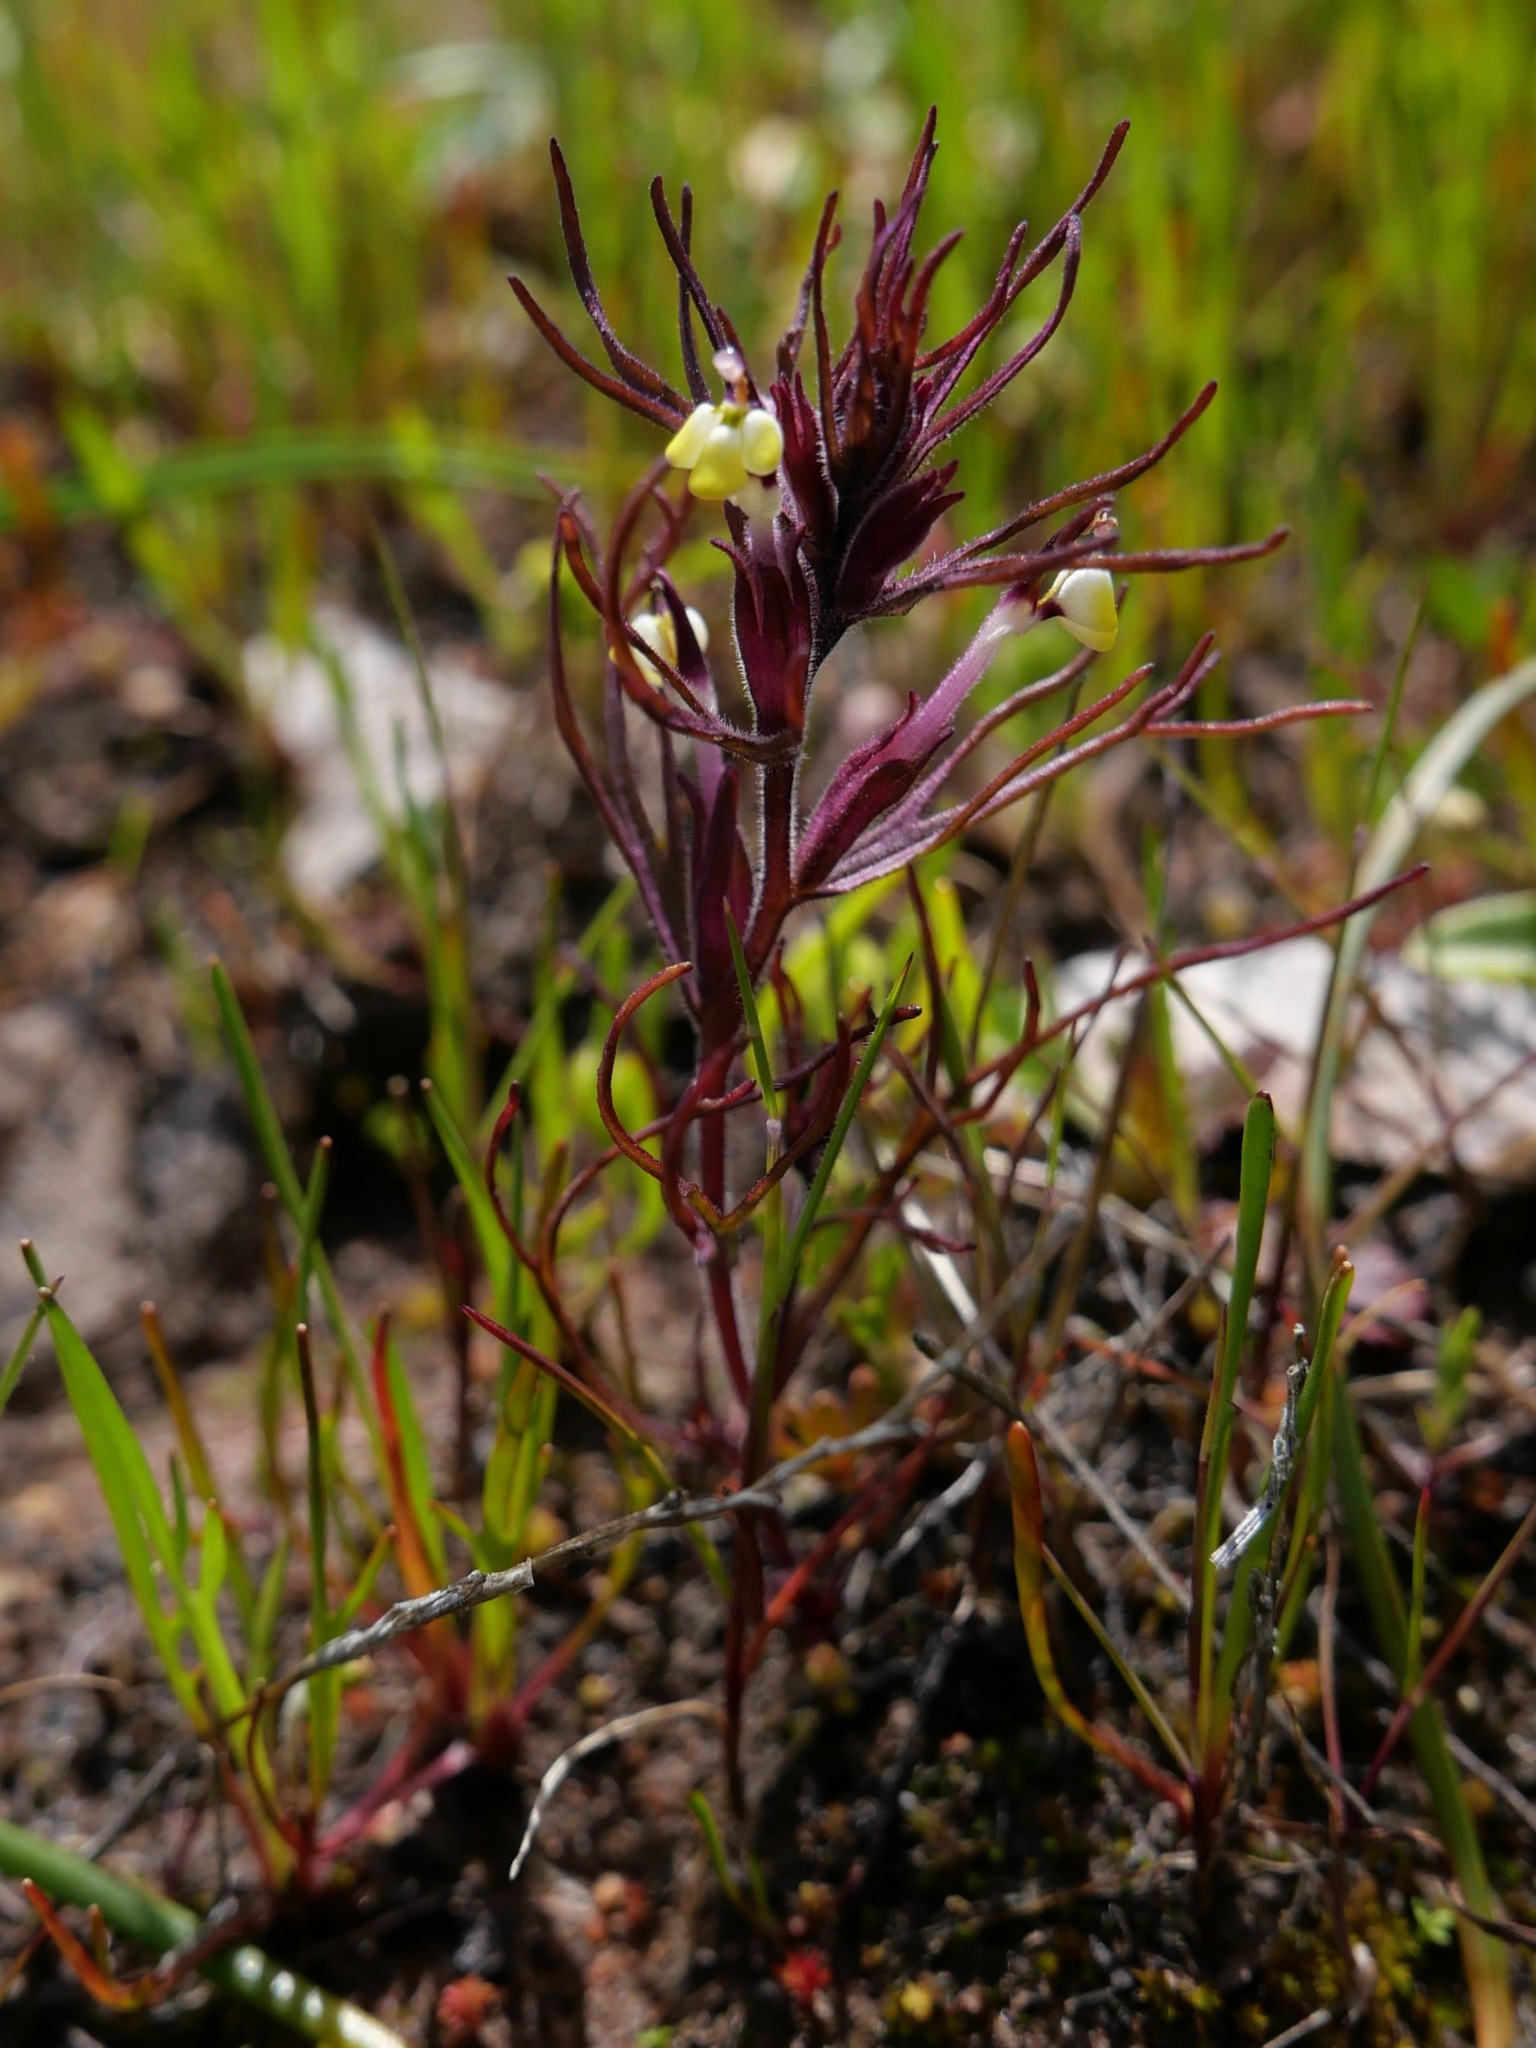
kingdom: Plantae
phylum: Tracheophyta
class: Magnoliopsida
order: Lamiales
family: Orobanchaceae
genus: Triphysaria
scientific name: Triphysaria micrantha
